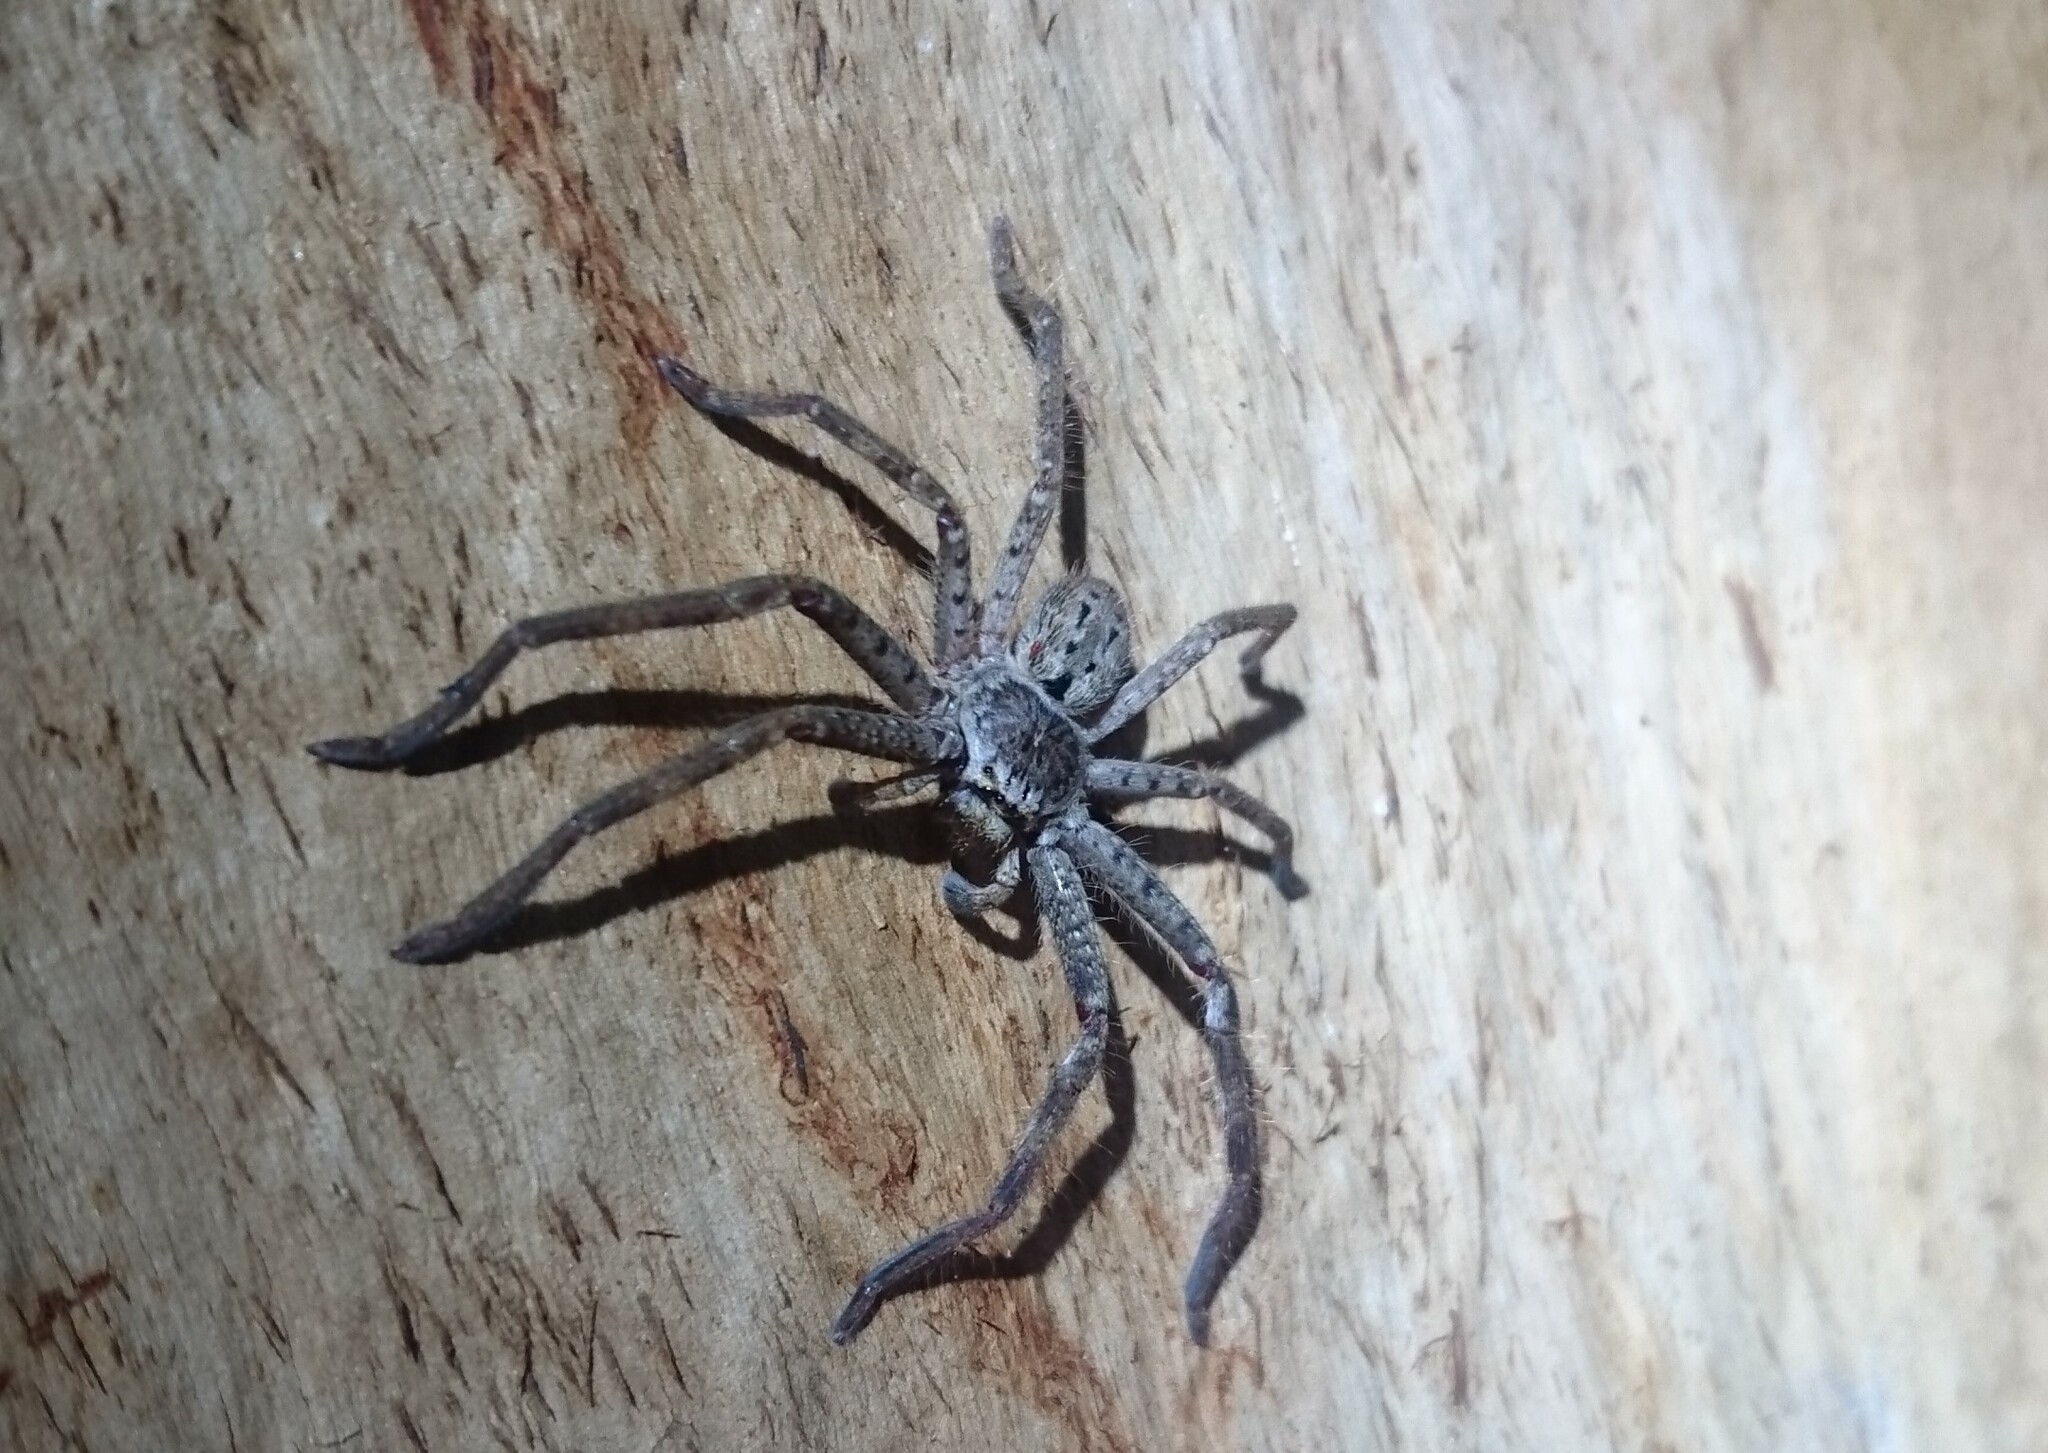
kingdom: Animalia
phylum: Arthropoda
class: Arachnida
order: Araneae
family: Sparassidae
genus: Isopeda
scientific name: Isopeda montana
